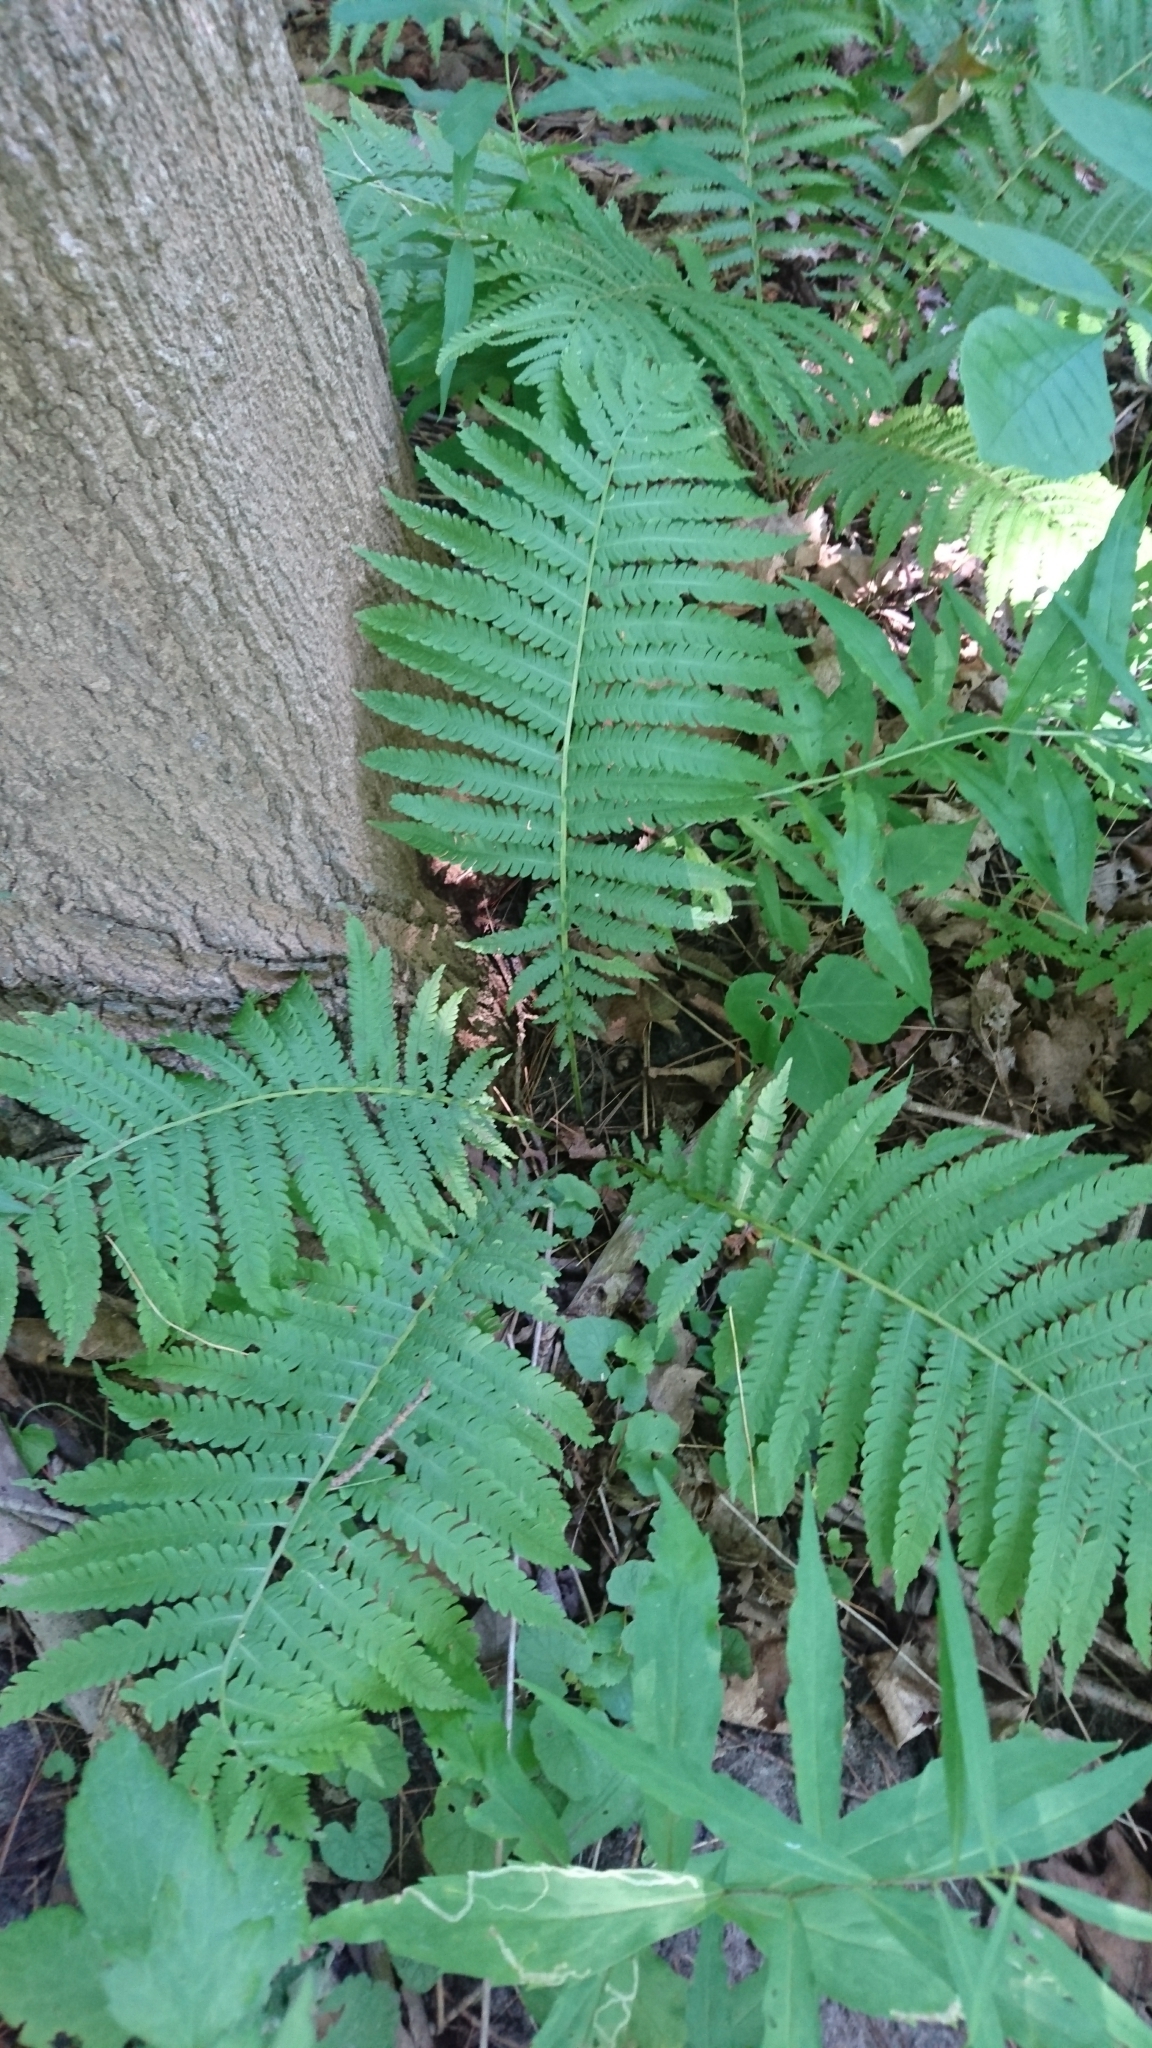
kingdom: Plantae
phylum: Tracheophyta
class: Polypodiopsida
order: Polypodiales
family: Onocleaceae
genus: Matteuccia
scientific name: Matteuccia struthiopteris
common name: Ostrich fern
